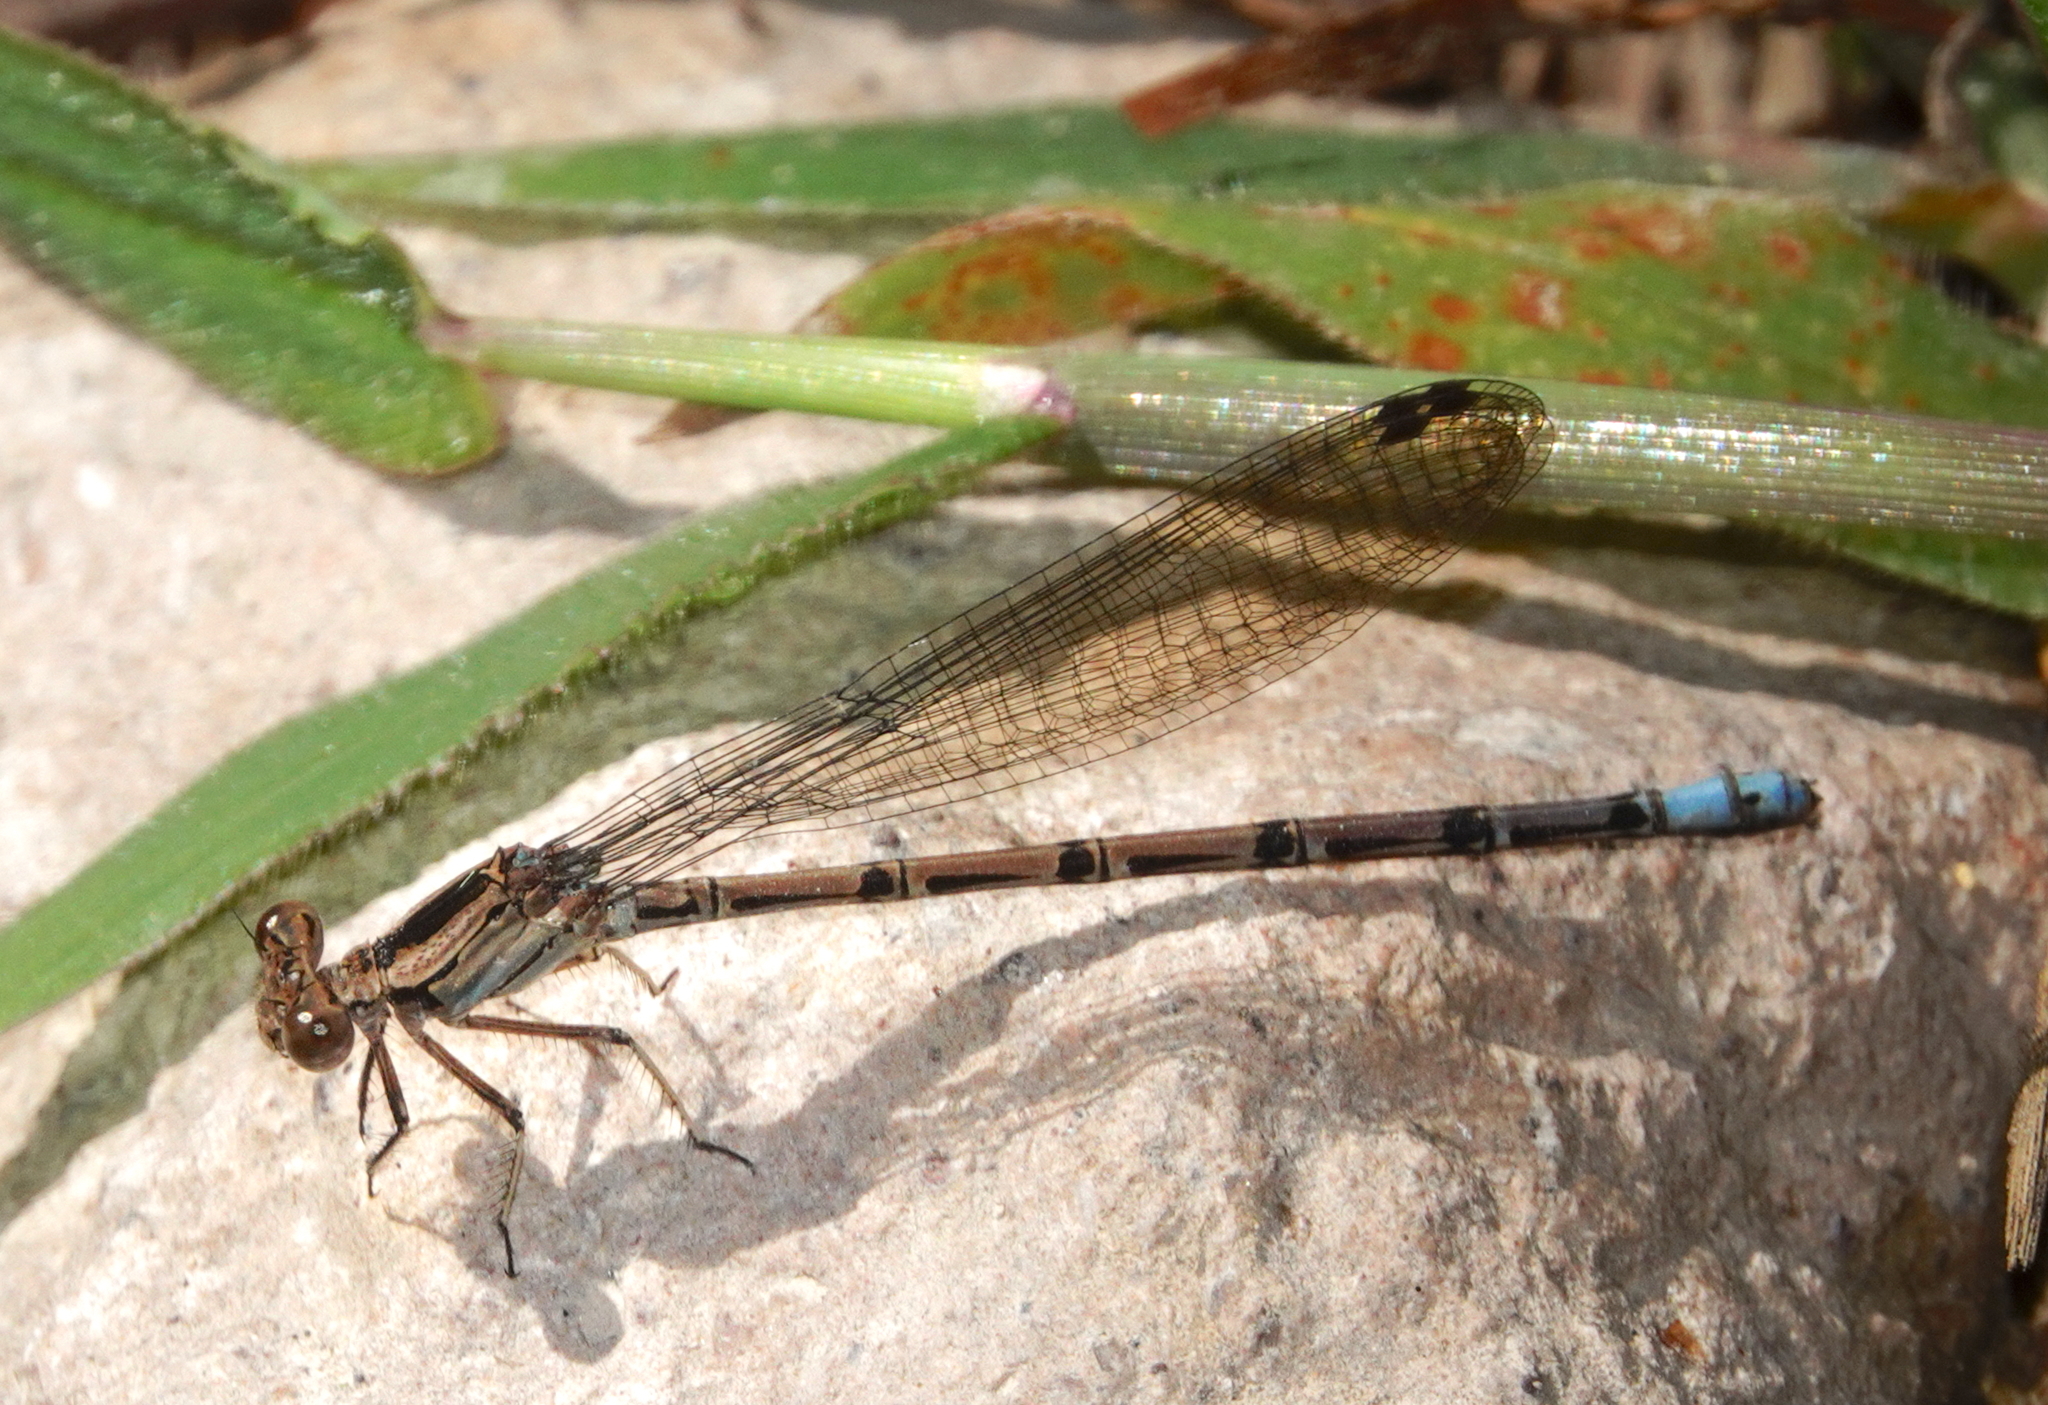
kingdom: Animalia
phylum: Arthropoda
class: Insecta
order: Odonata
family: Coenagrionidae
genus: Argia
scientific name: Argia elongata
